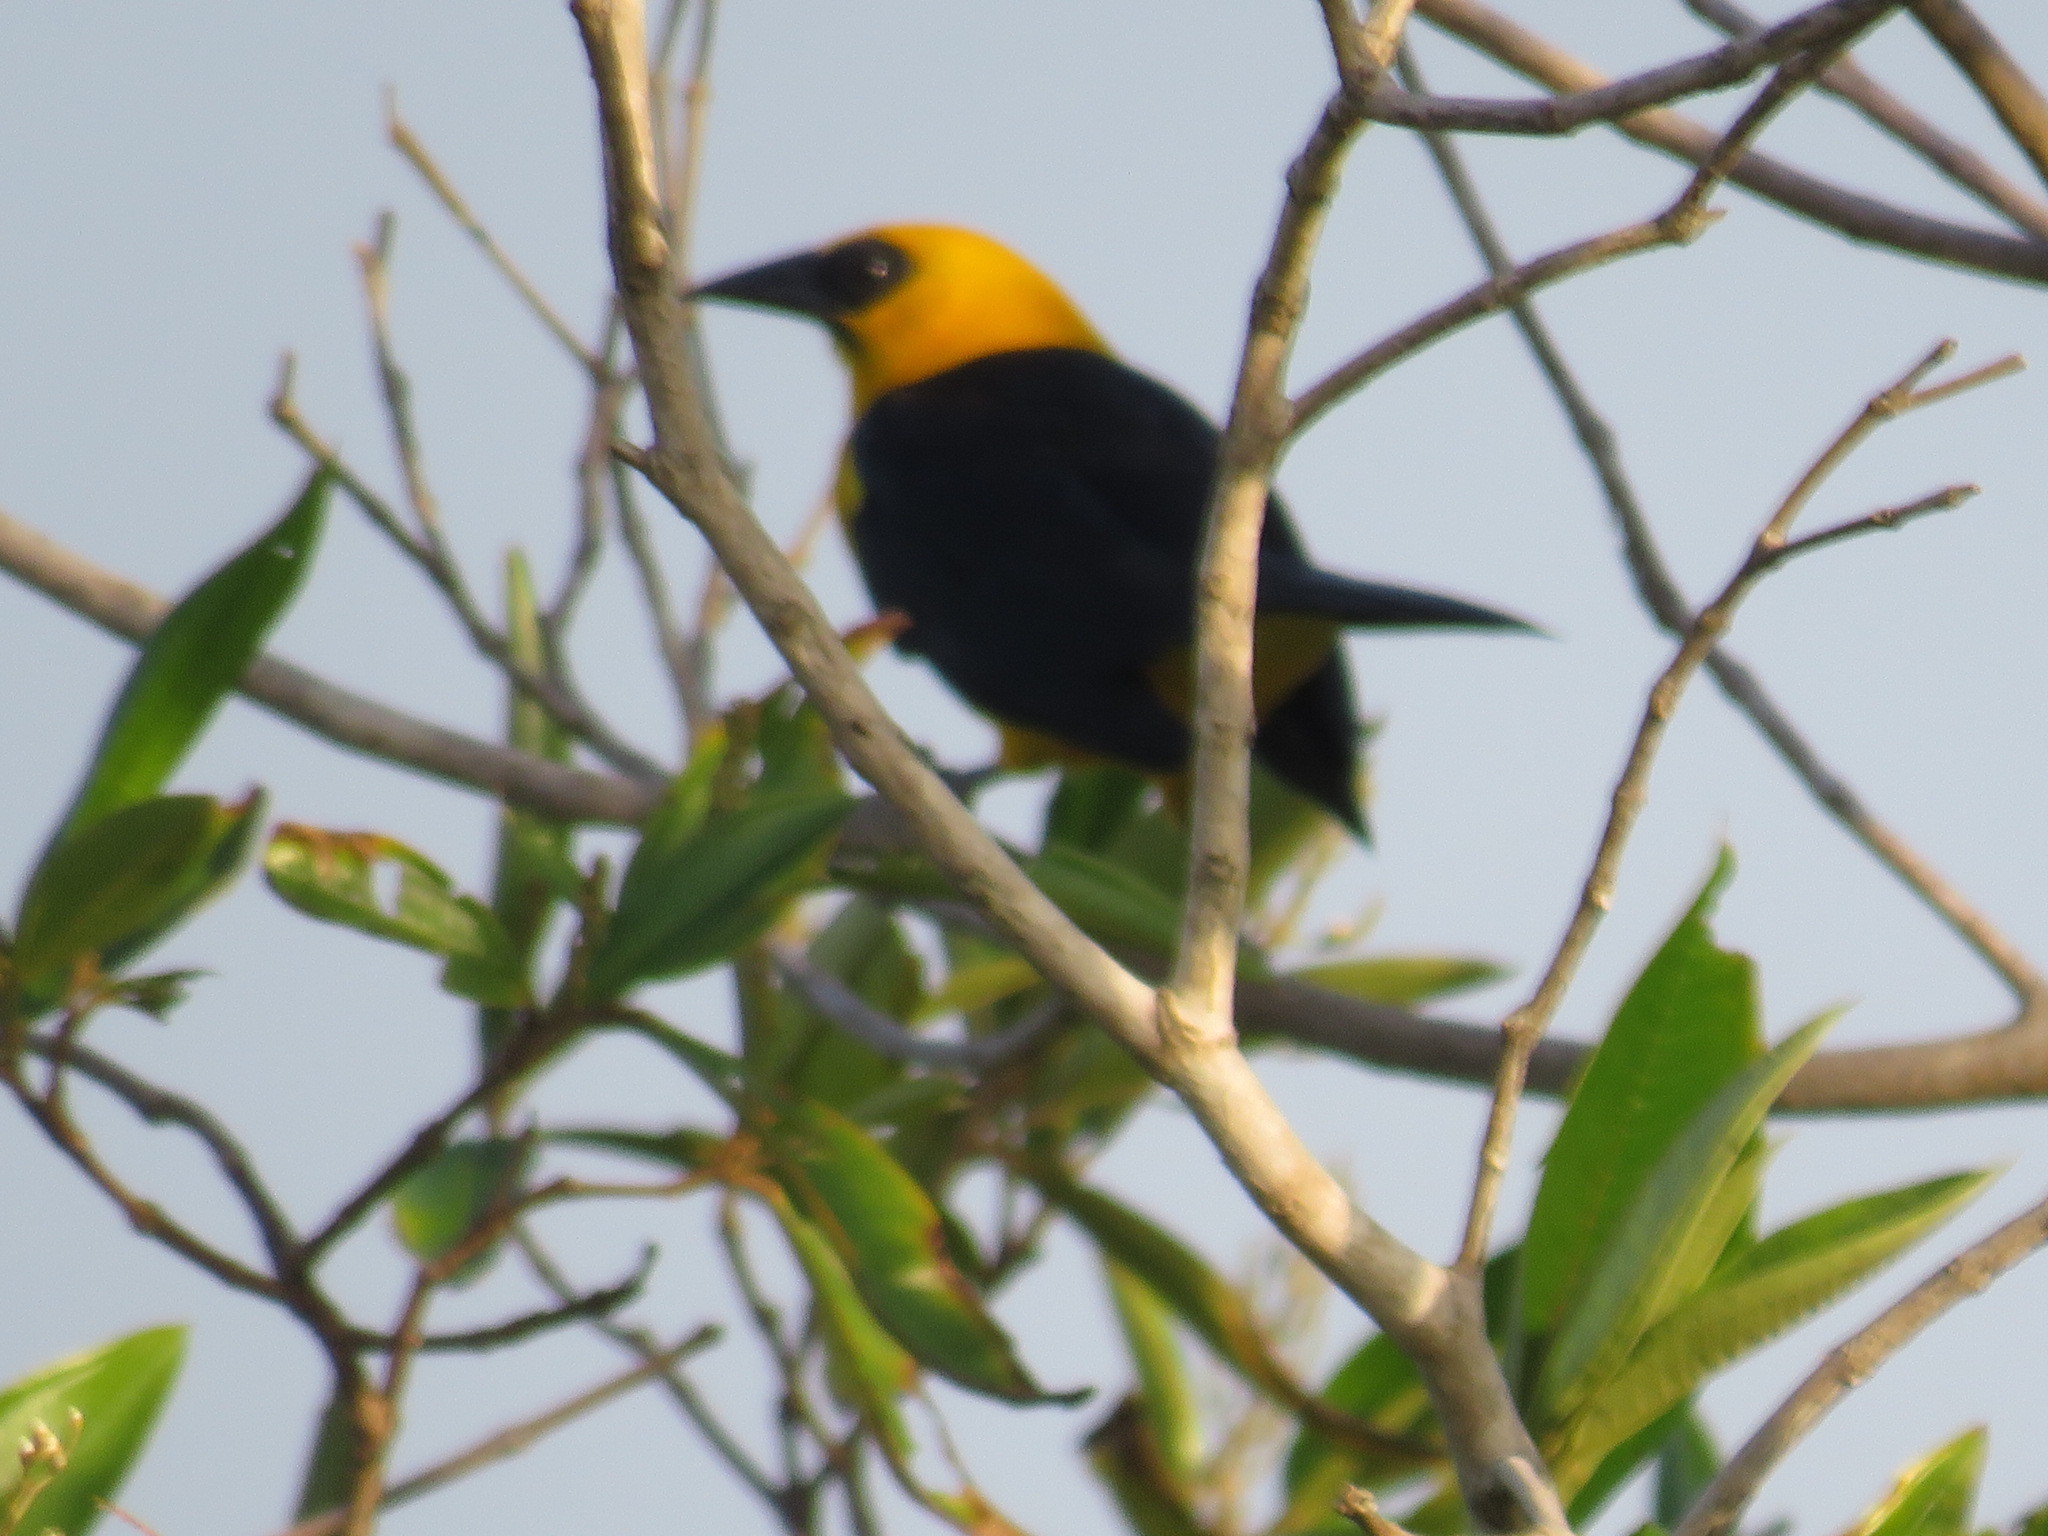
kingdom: Animalia
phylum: Chordata
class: Aves
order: Passeriformes
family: Icteridae
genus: Gymnomystax
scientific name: Gymnomystax mexicanus
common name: Oriole blackbird
